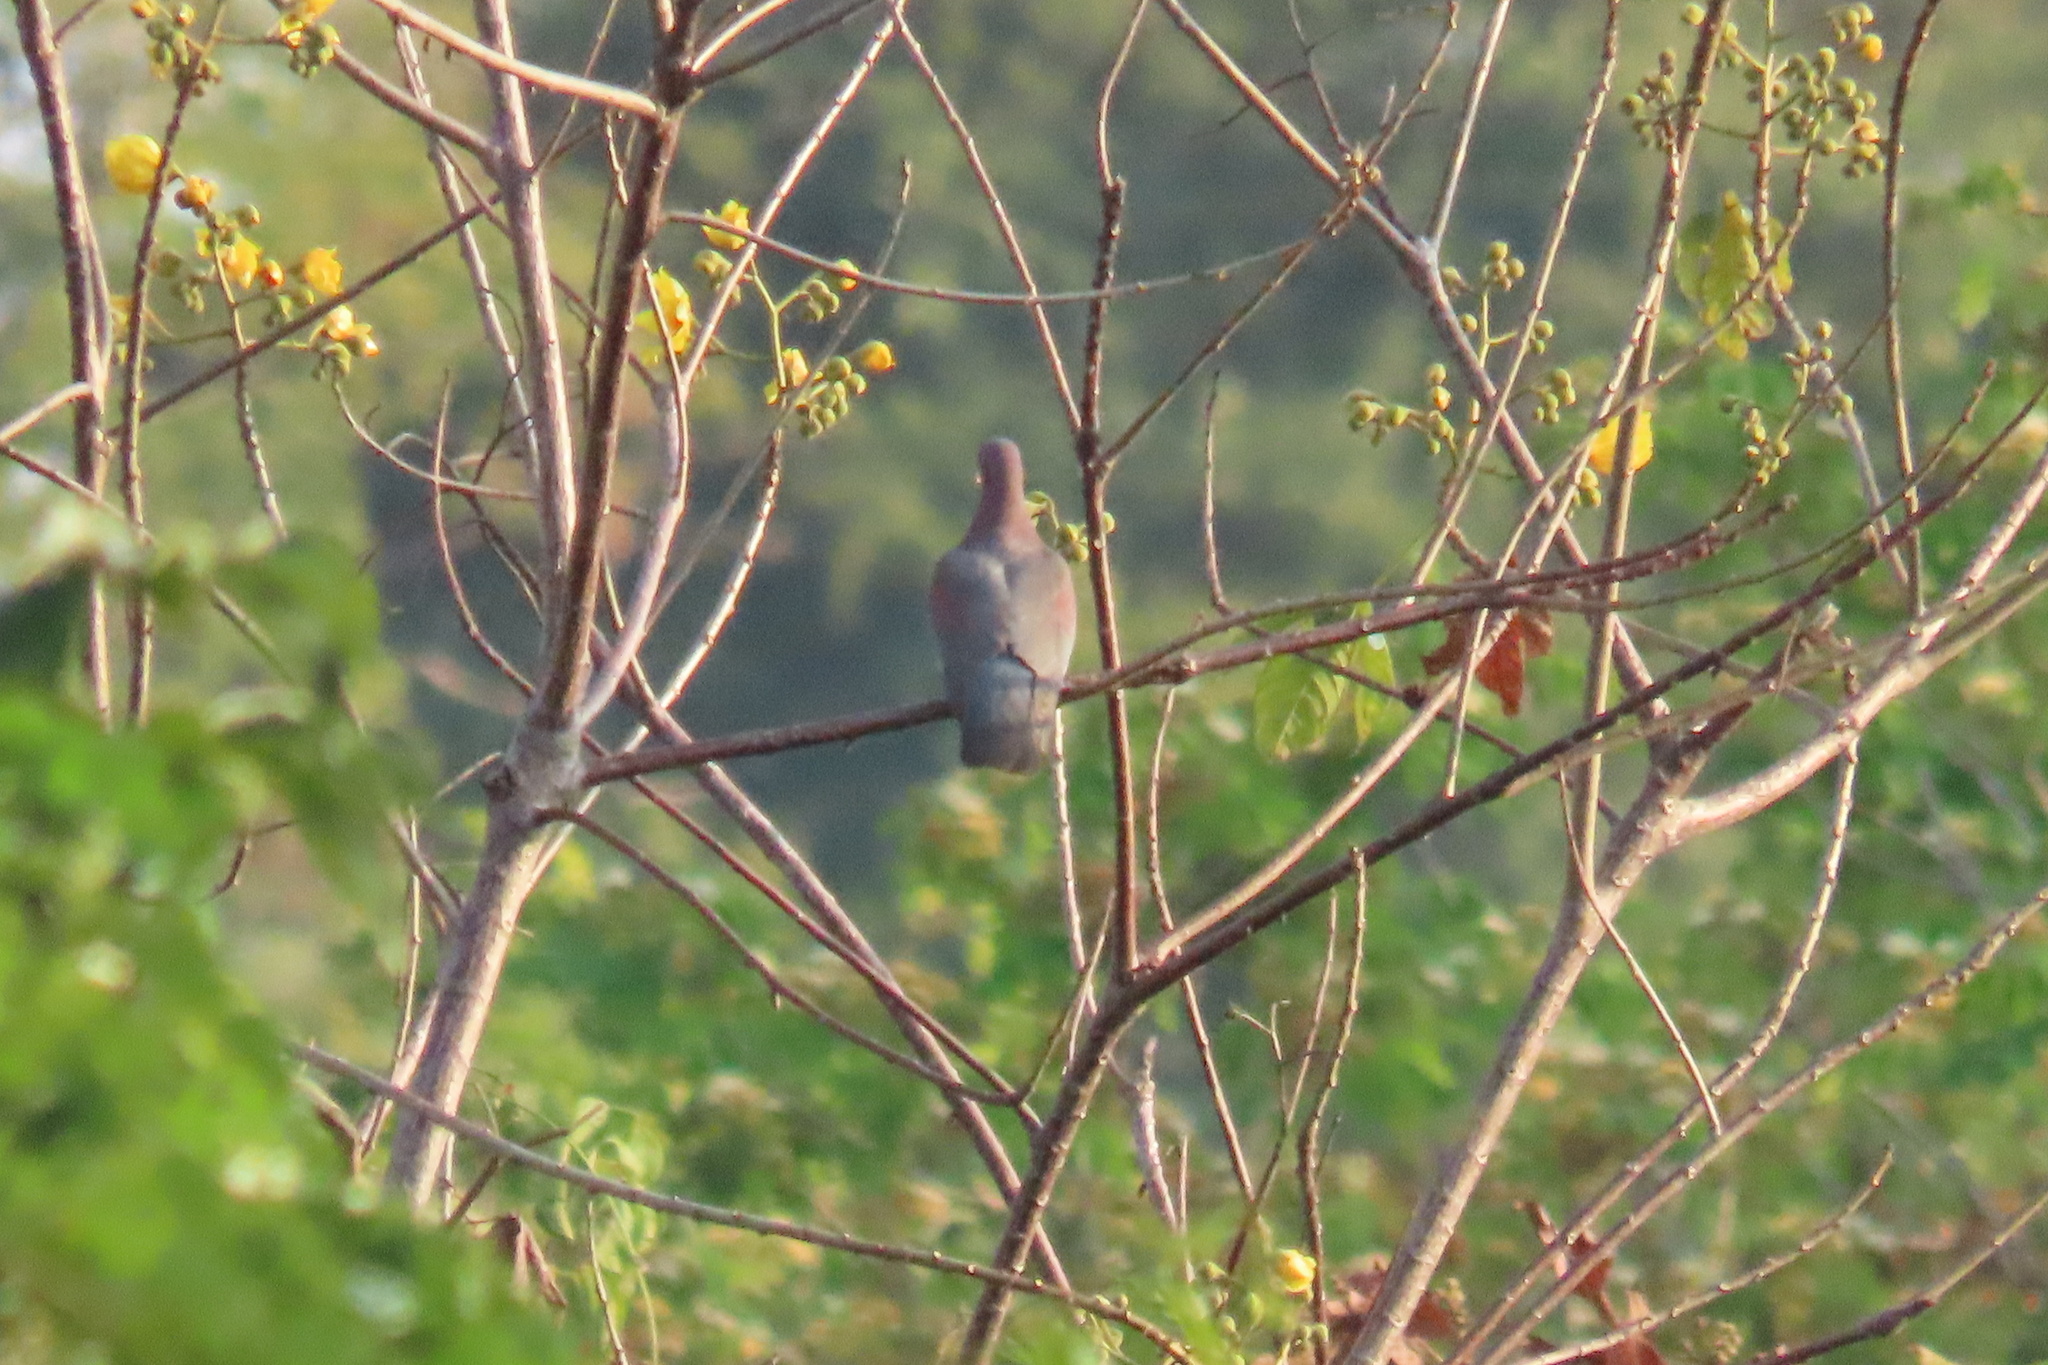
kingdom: Animalia
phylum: Chordata
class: Aves
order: Columbiformes
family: Columbidae
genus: Patagioenas
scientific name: Patagioenas flavirostris
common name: Red-billed pigeon
